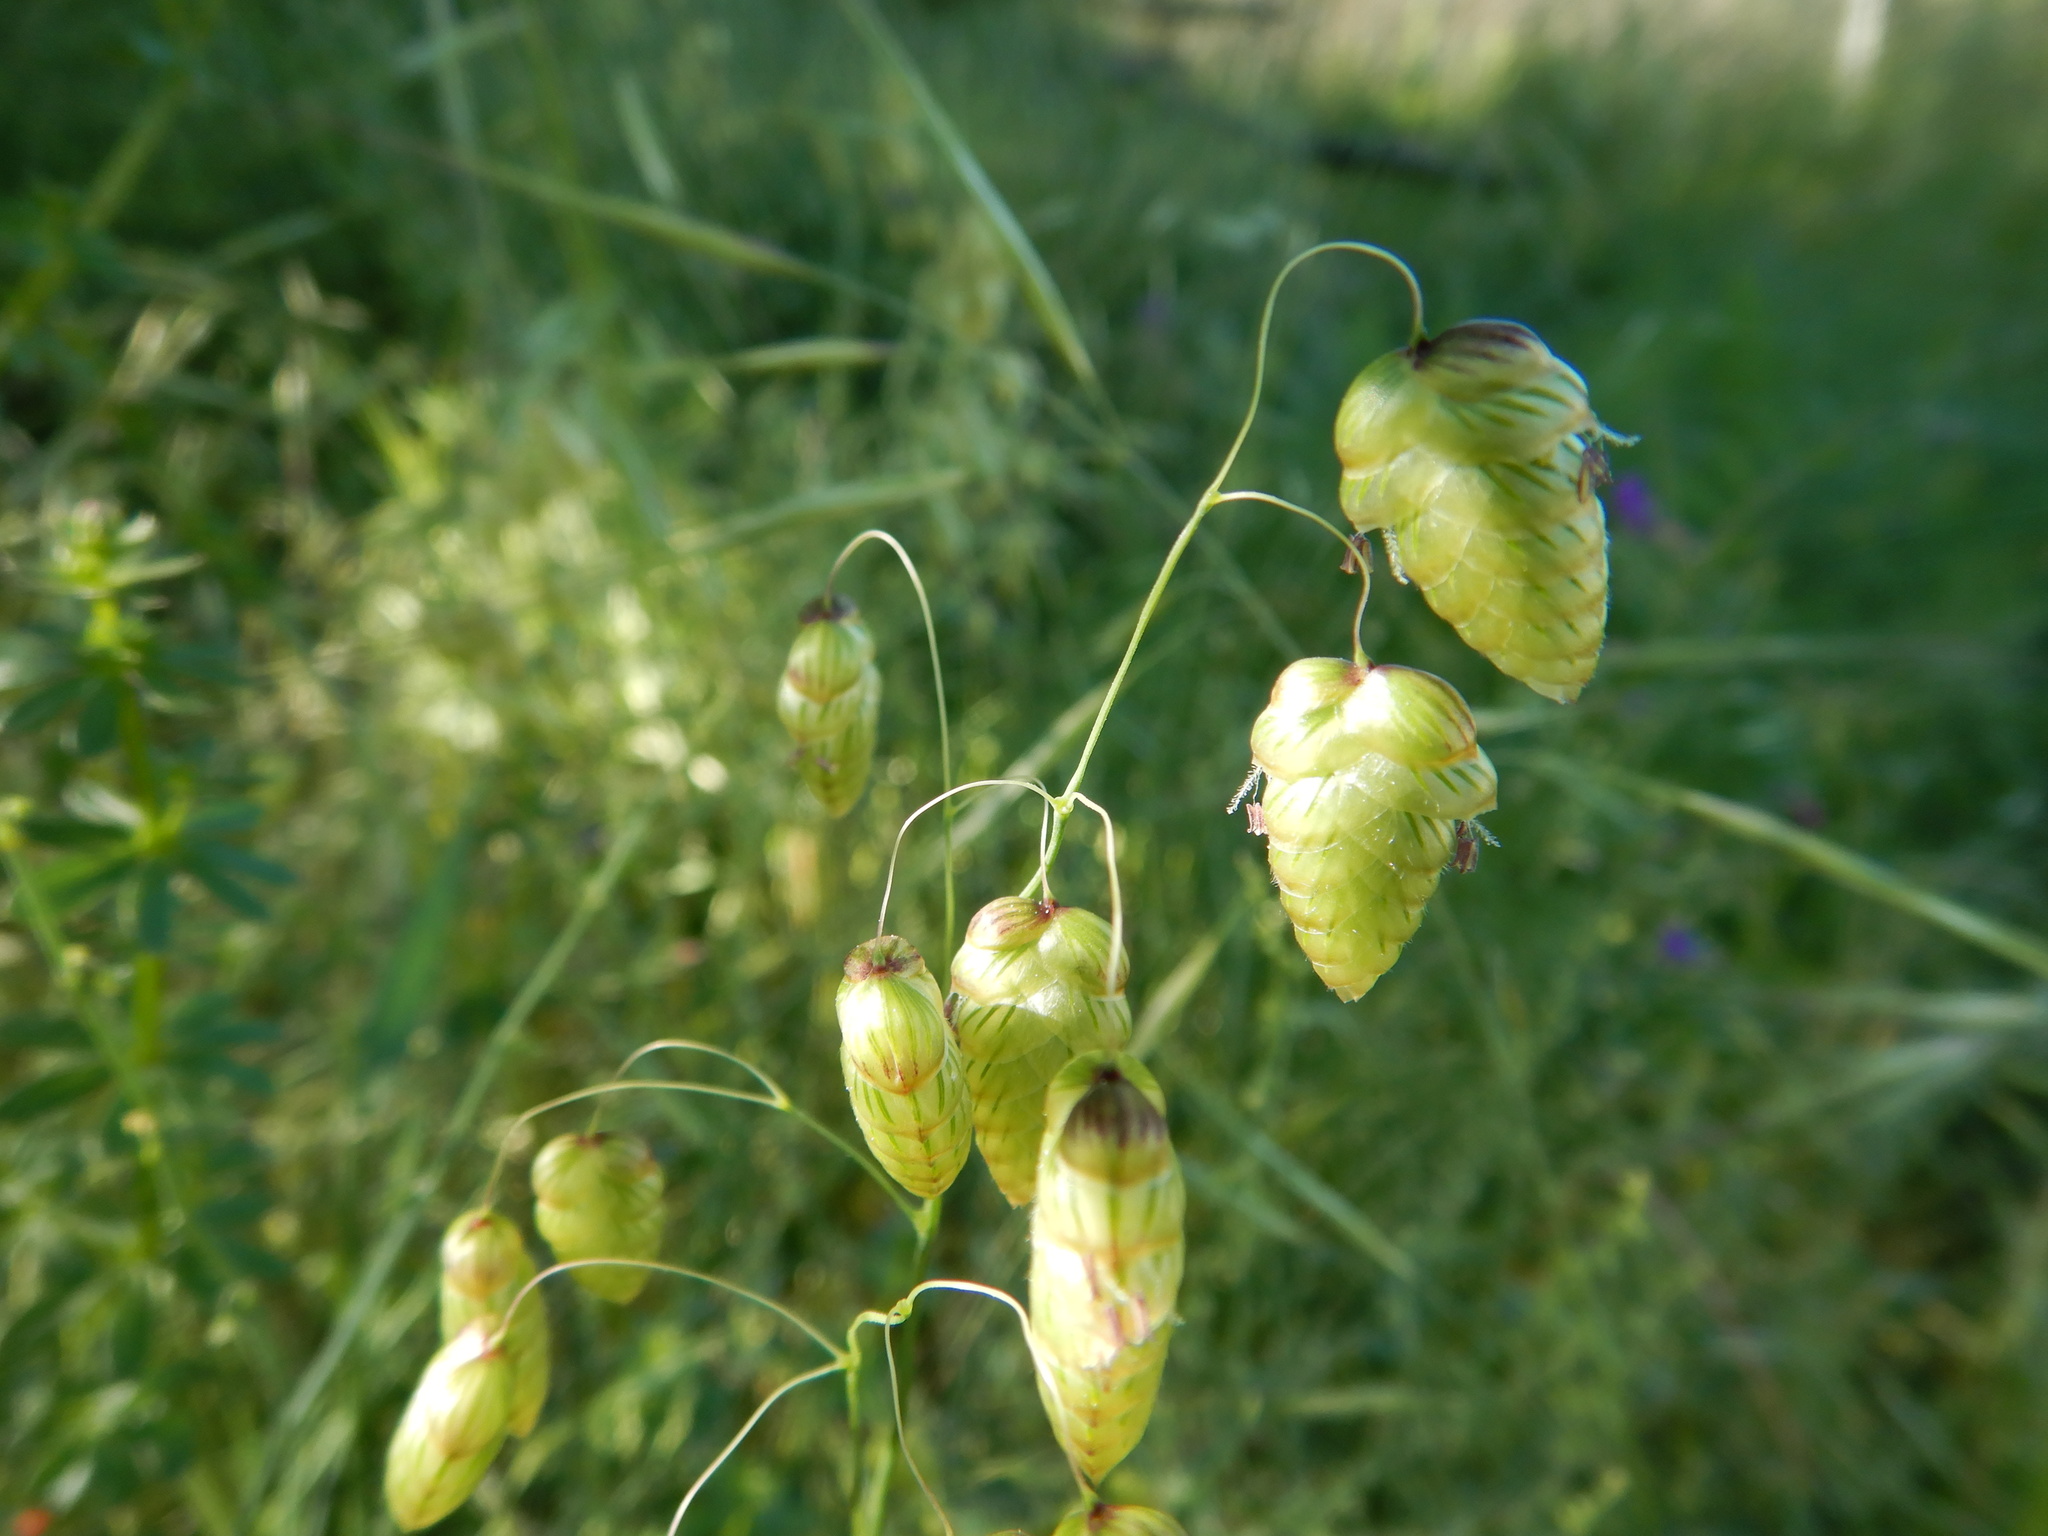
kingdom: Plantae
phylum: Tracheophyta
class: Liliopsida
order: Poales
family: Poaceae
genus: Briza
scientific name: Briza maxima
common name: Big quakinggrass
